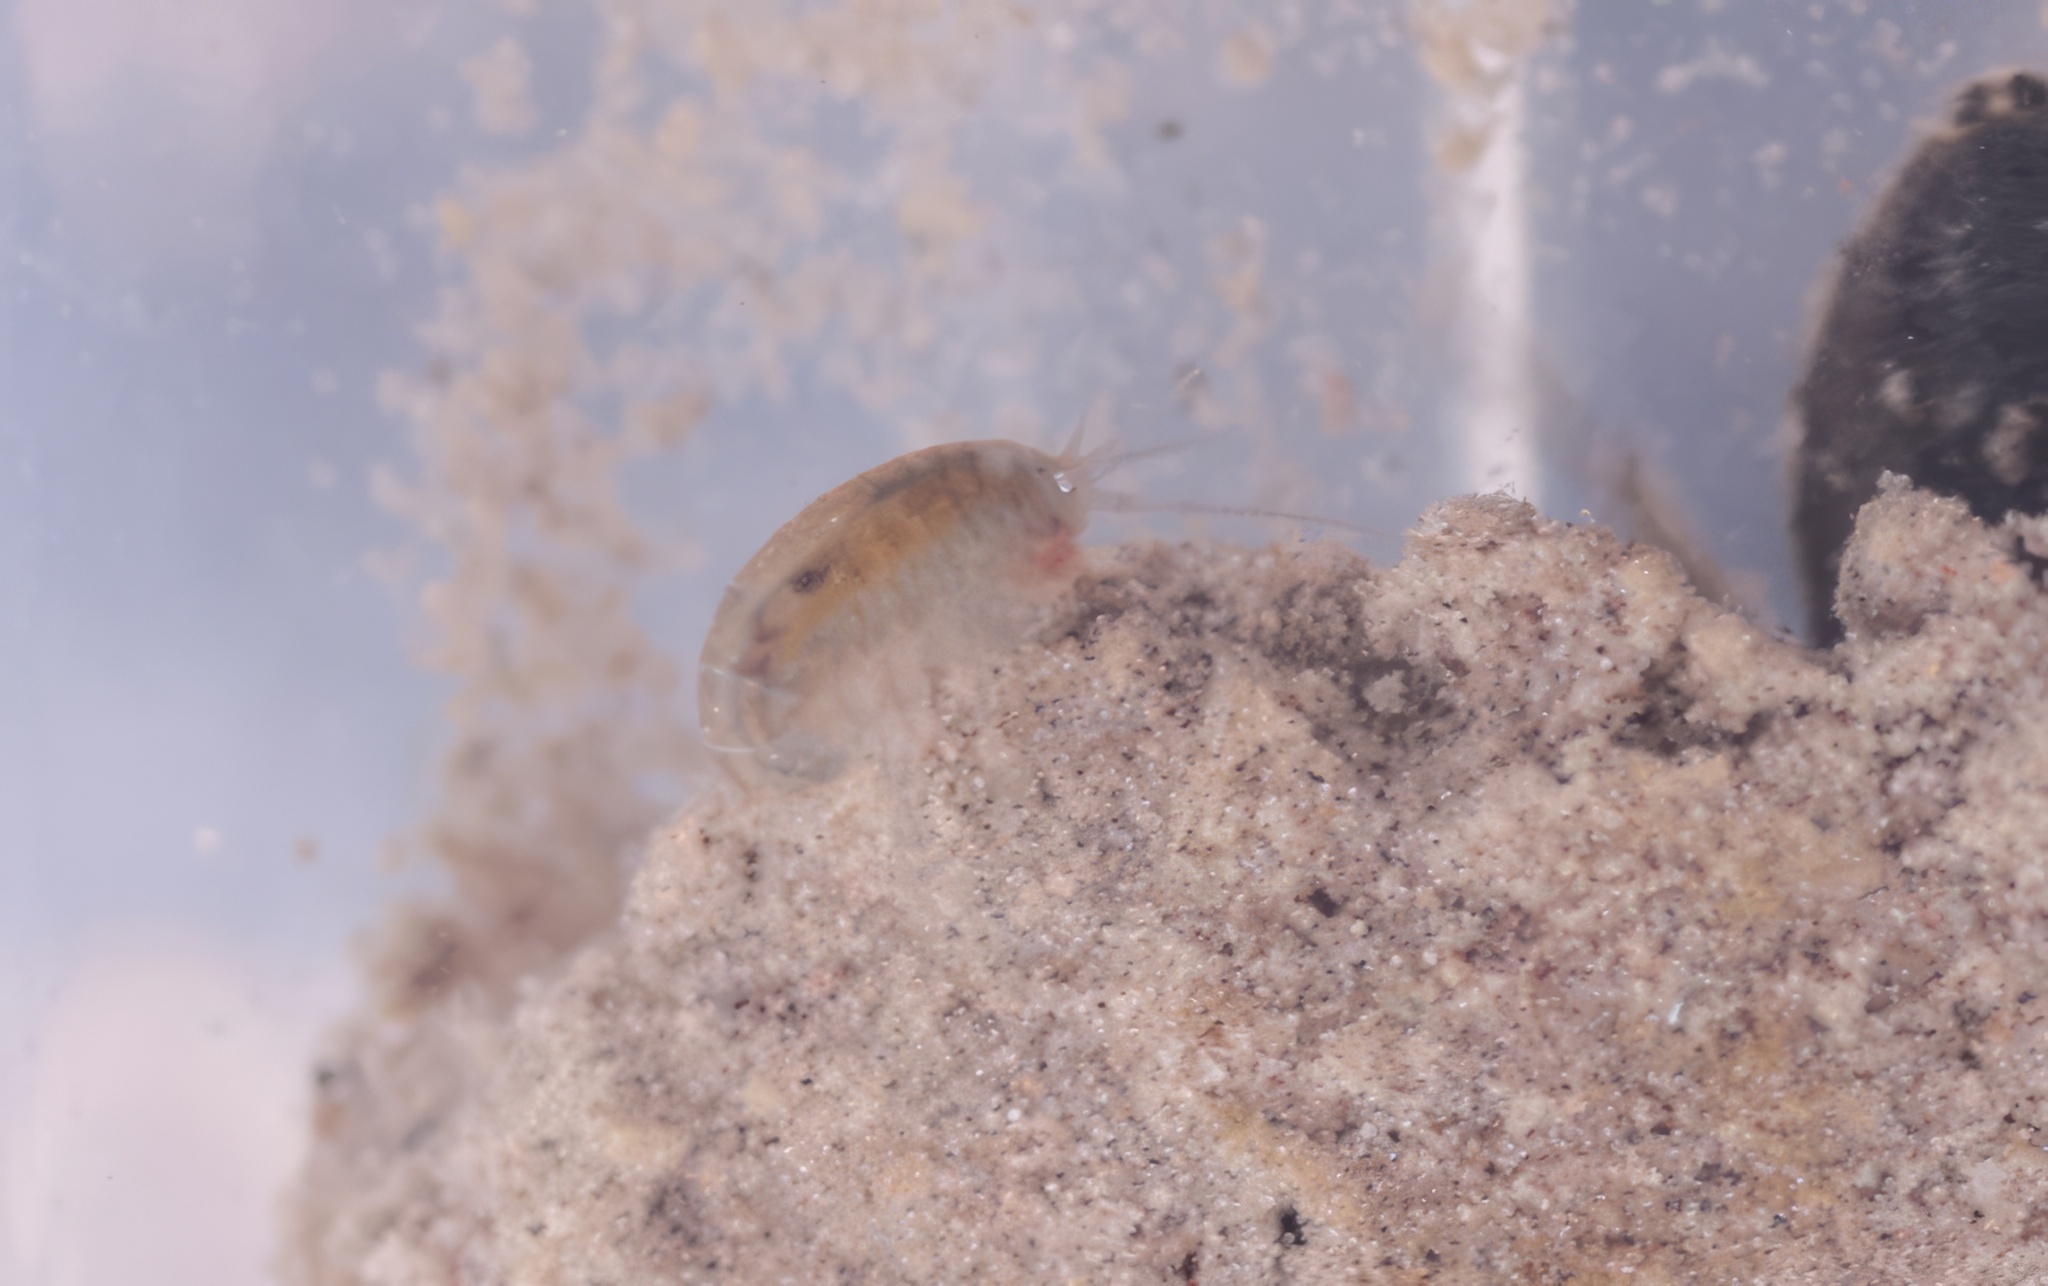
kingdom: Animalia
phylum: Arthropoda
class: Malacostraca
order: Amphipoda
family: Hyalellidae
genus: Hyalella
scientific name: Hyalella sandra
